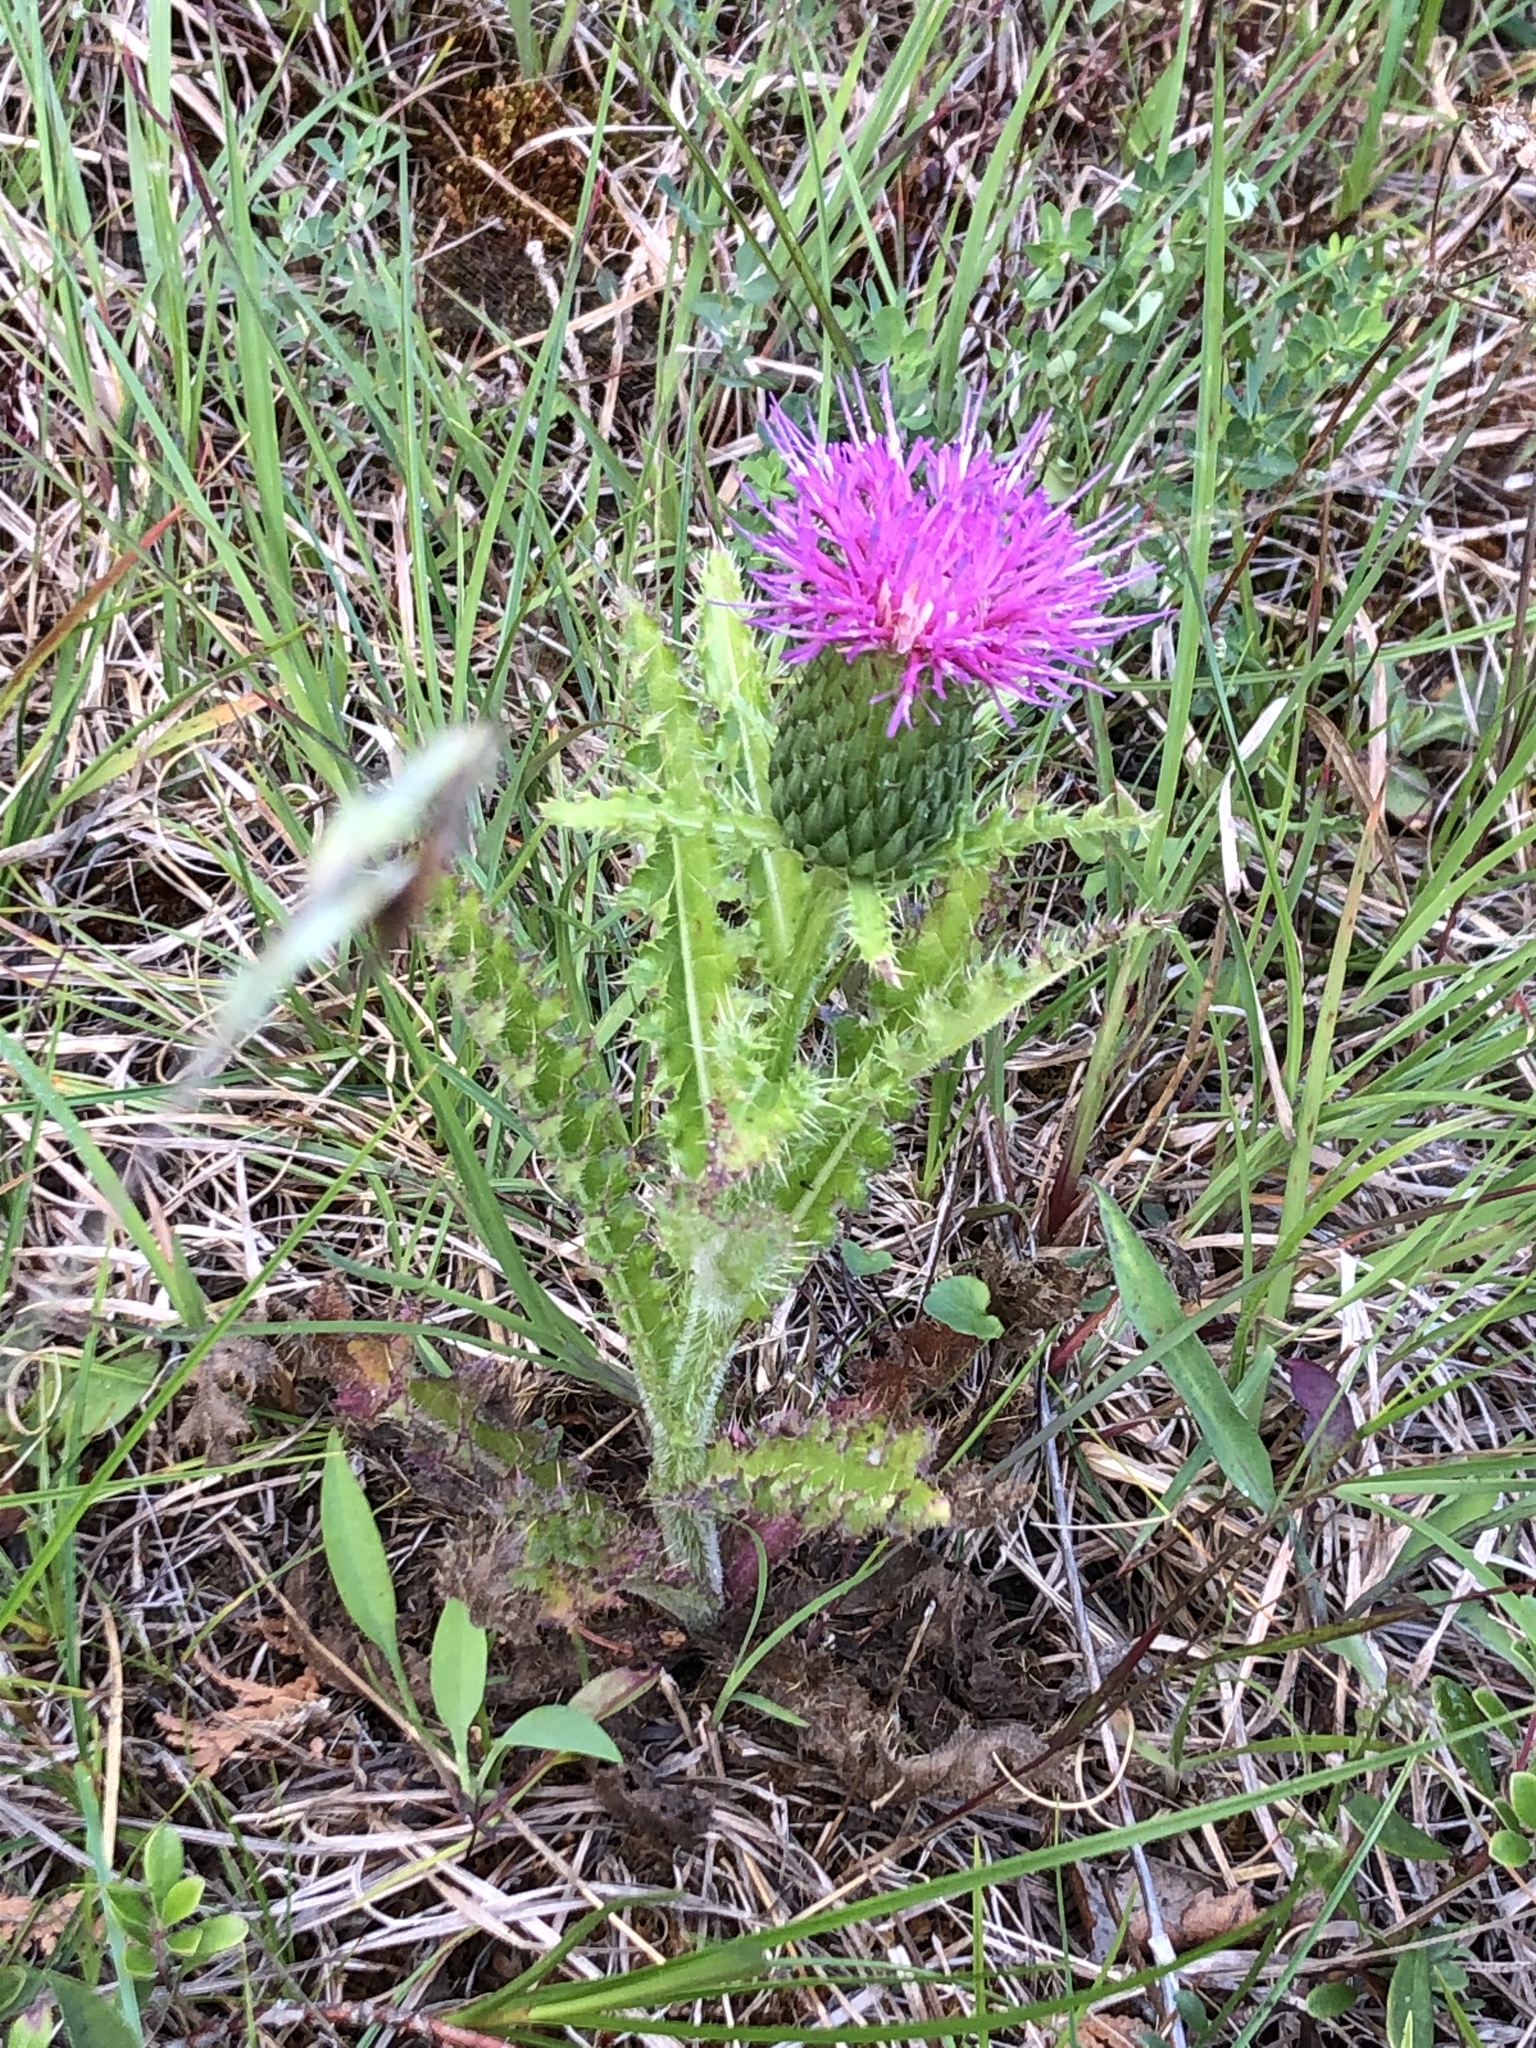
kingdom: Plantae
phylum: Tracheophyta
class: Magnoliopsida
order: Asterales
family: Asteraceae
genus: Cirsium
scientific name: Cirsium pumilum
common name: Pasture thistle
